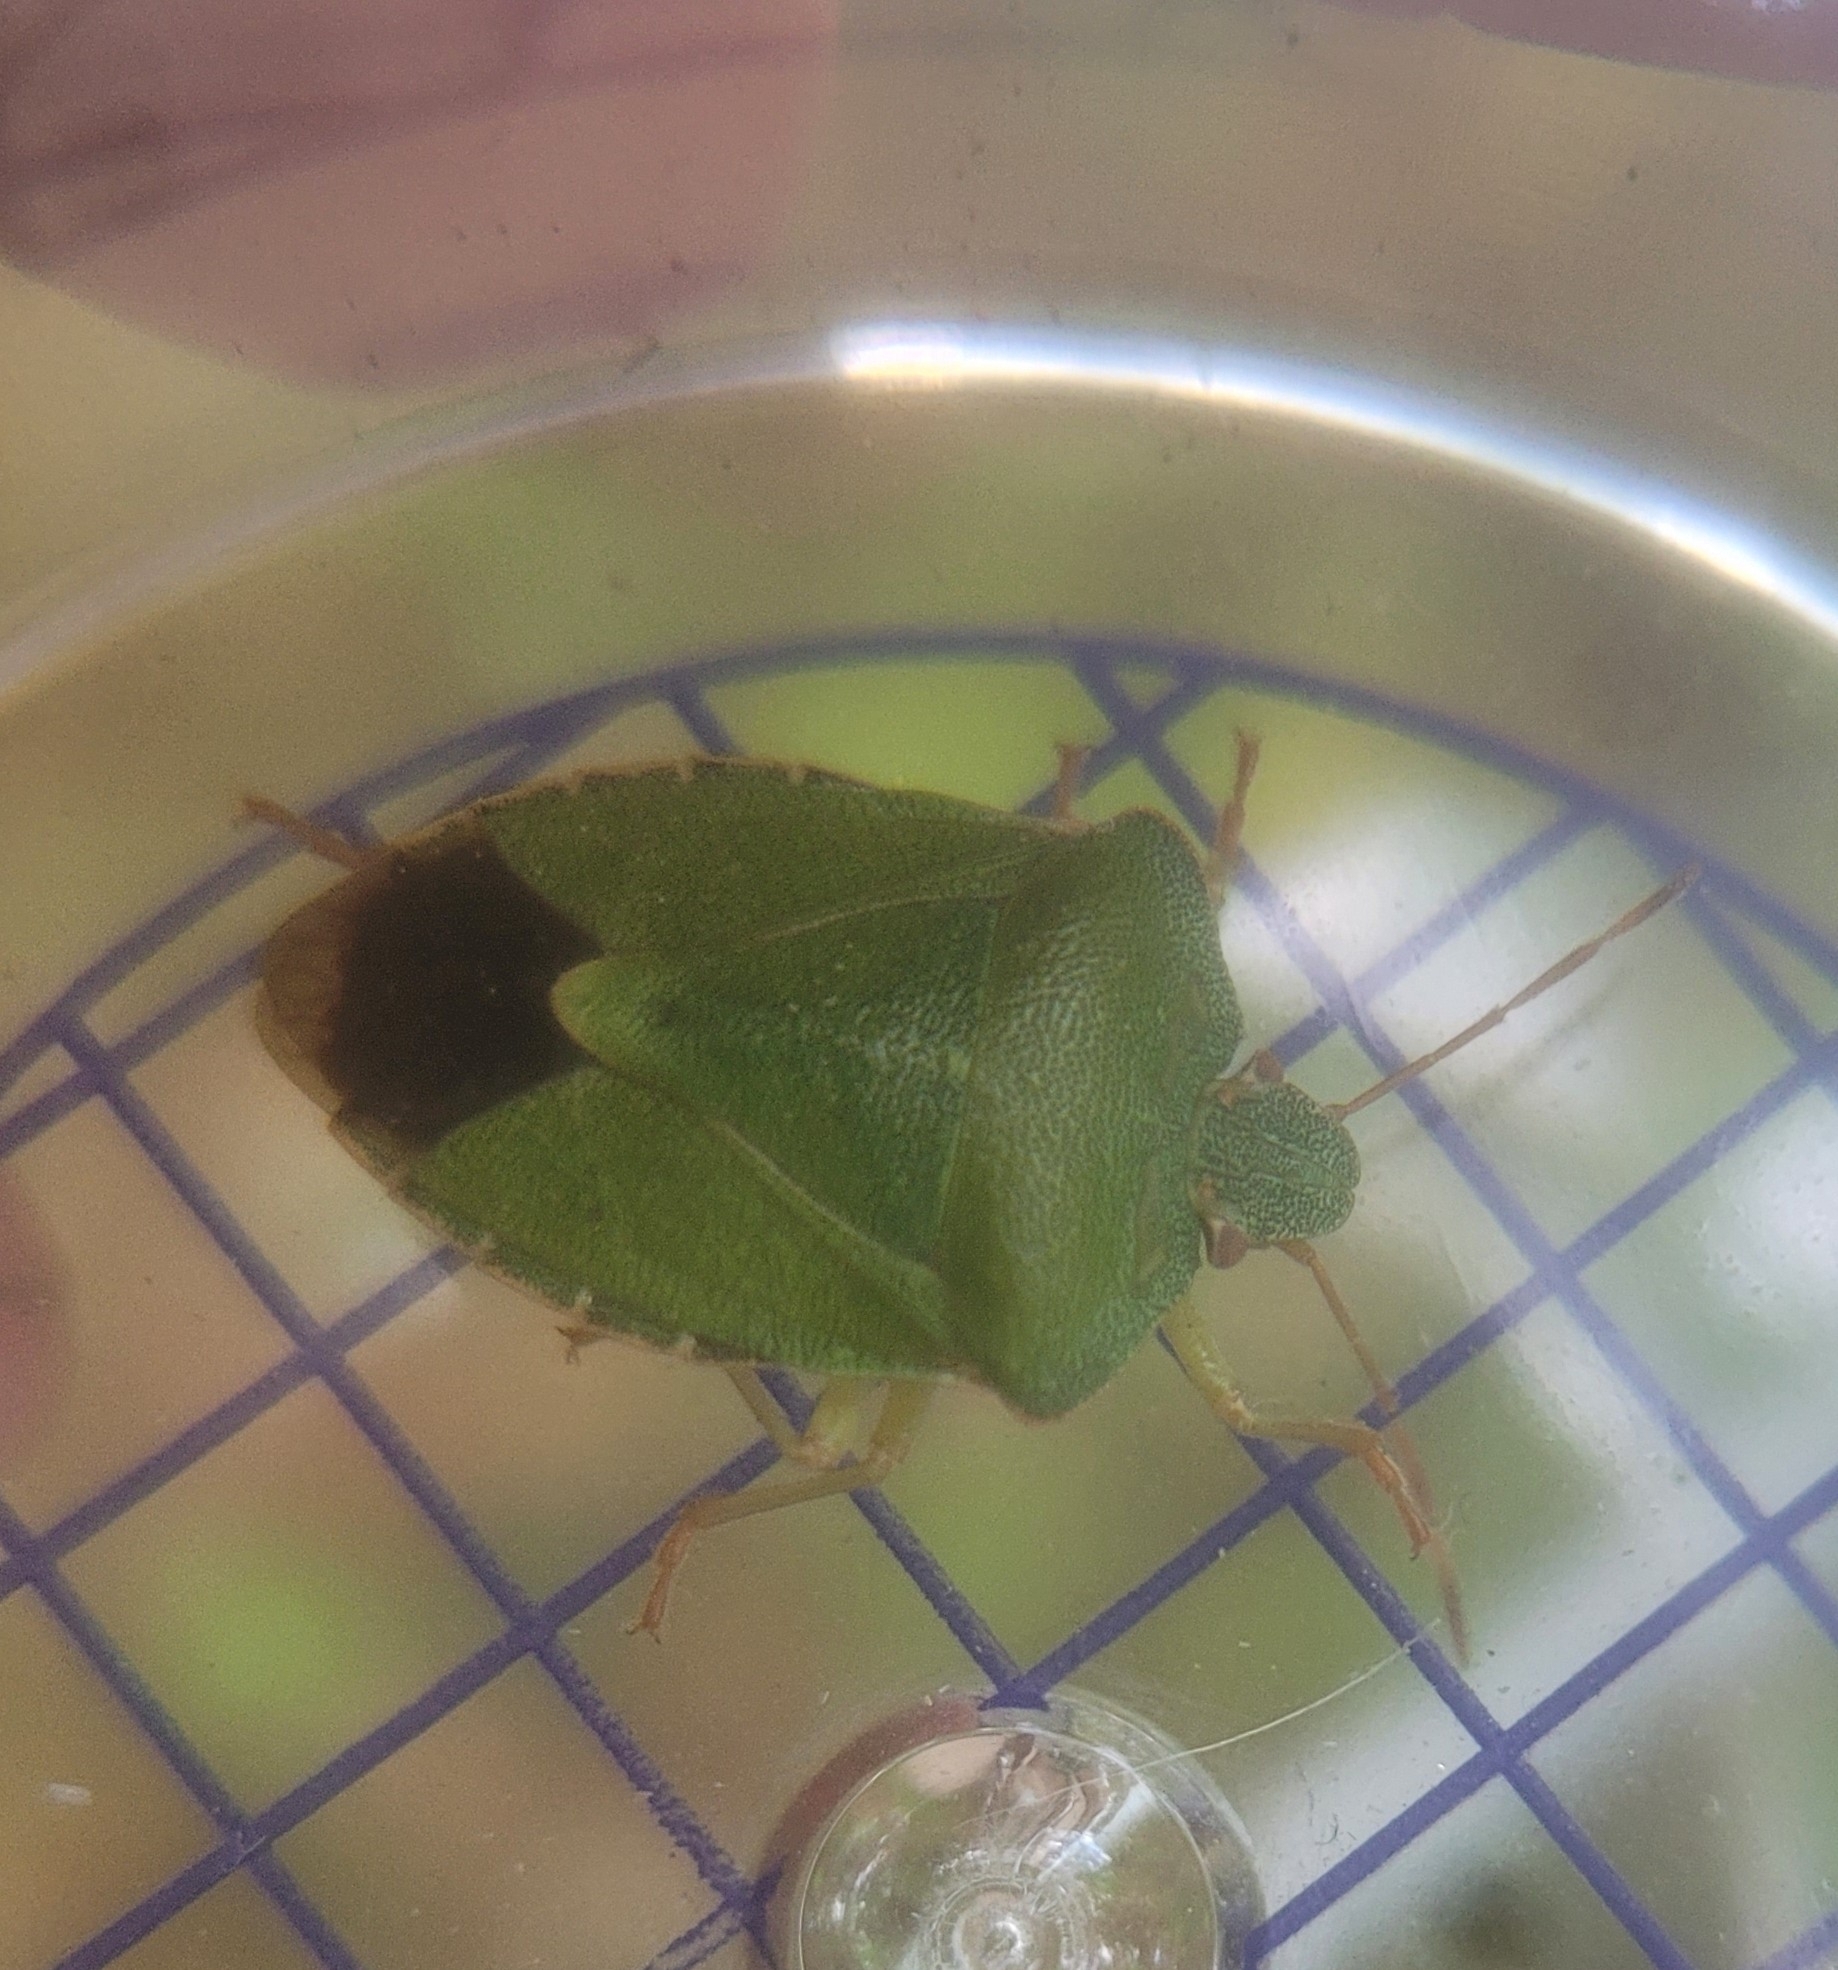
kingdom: Animalia
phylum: Arthropoda
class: Insecta
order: Hemiptera
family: Pentatomidae
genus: Palomena
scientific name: Palomena prasina
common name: Green shieldbug
